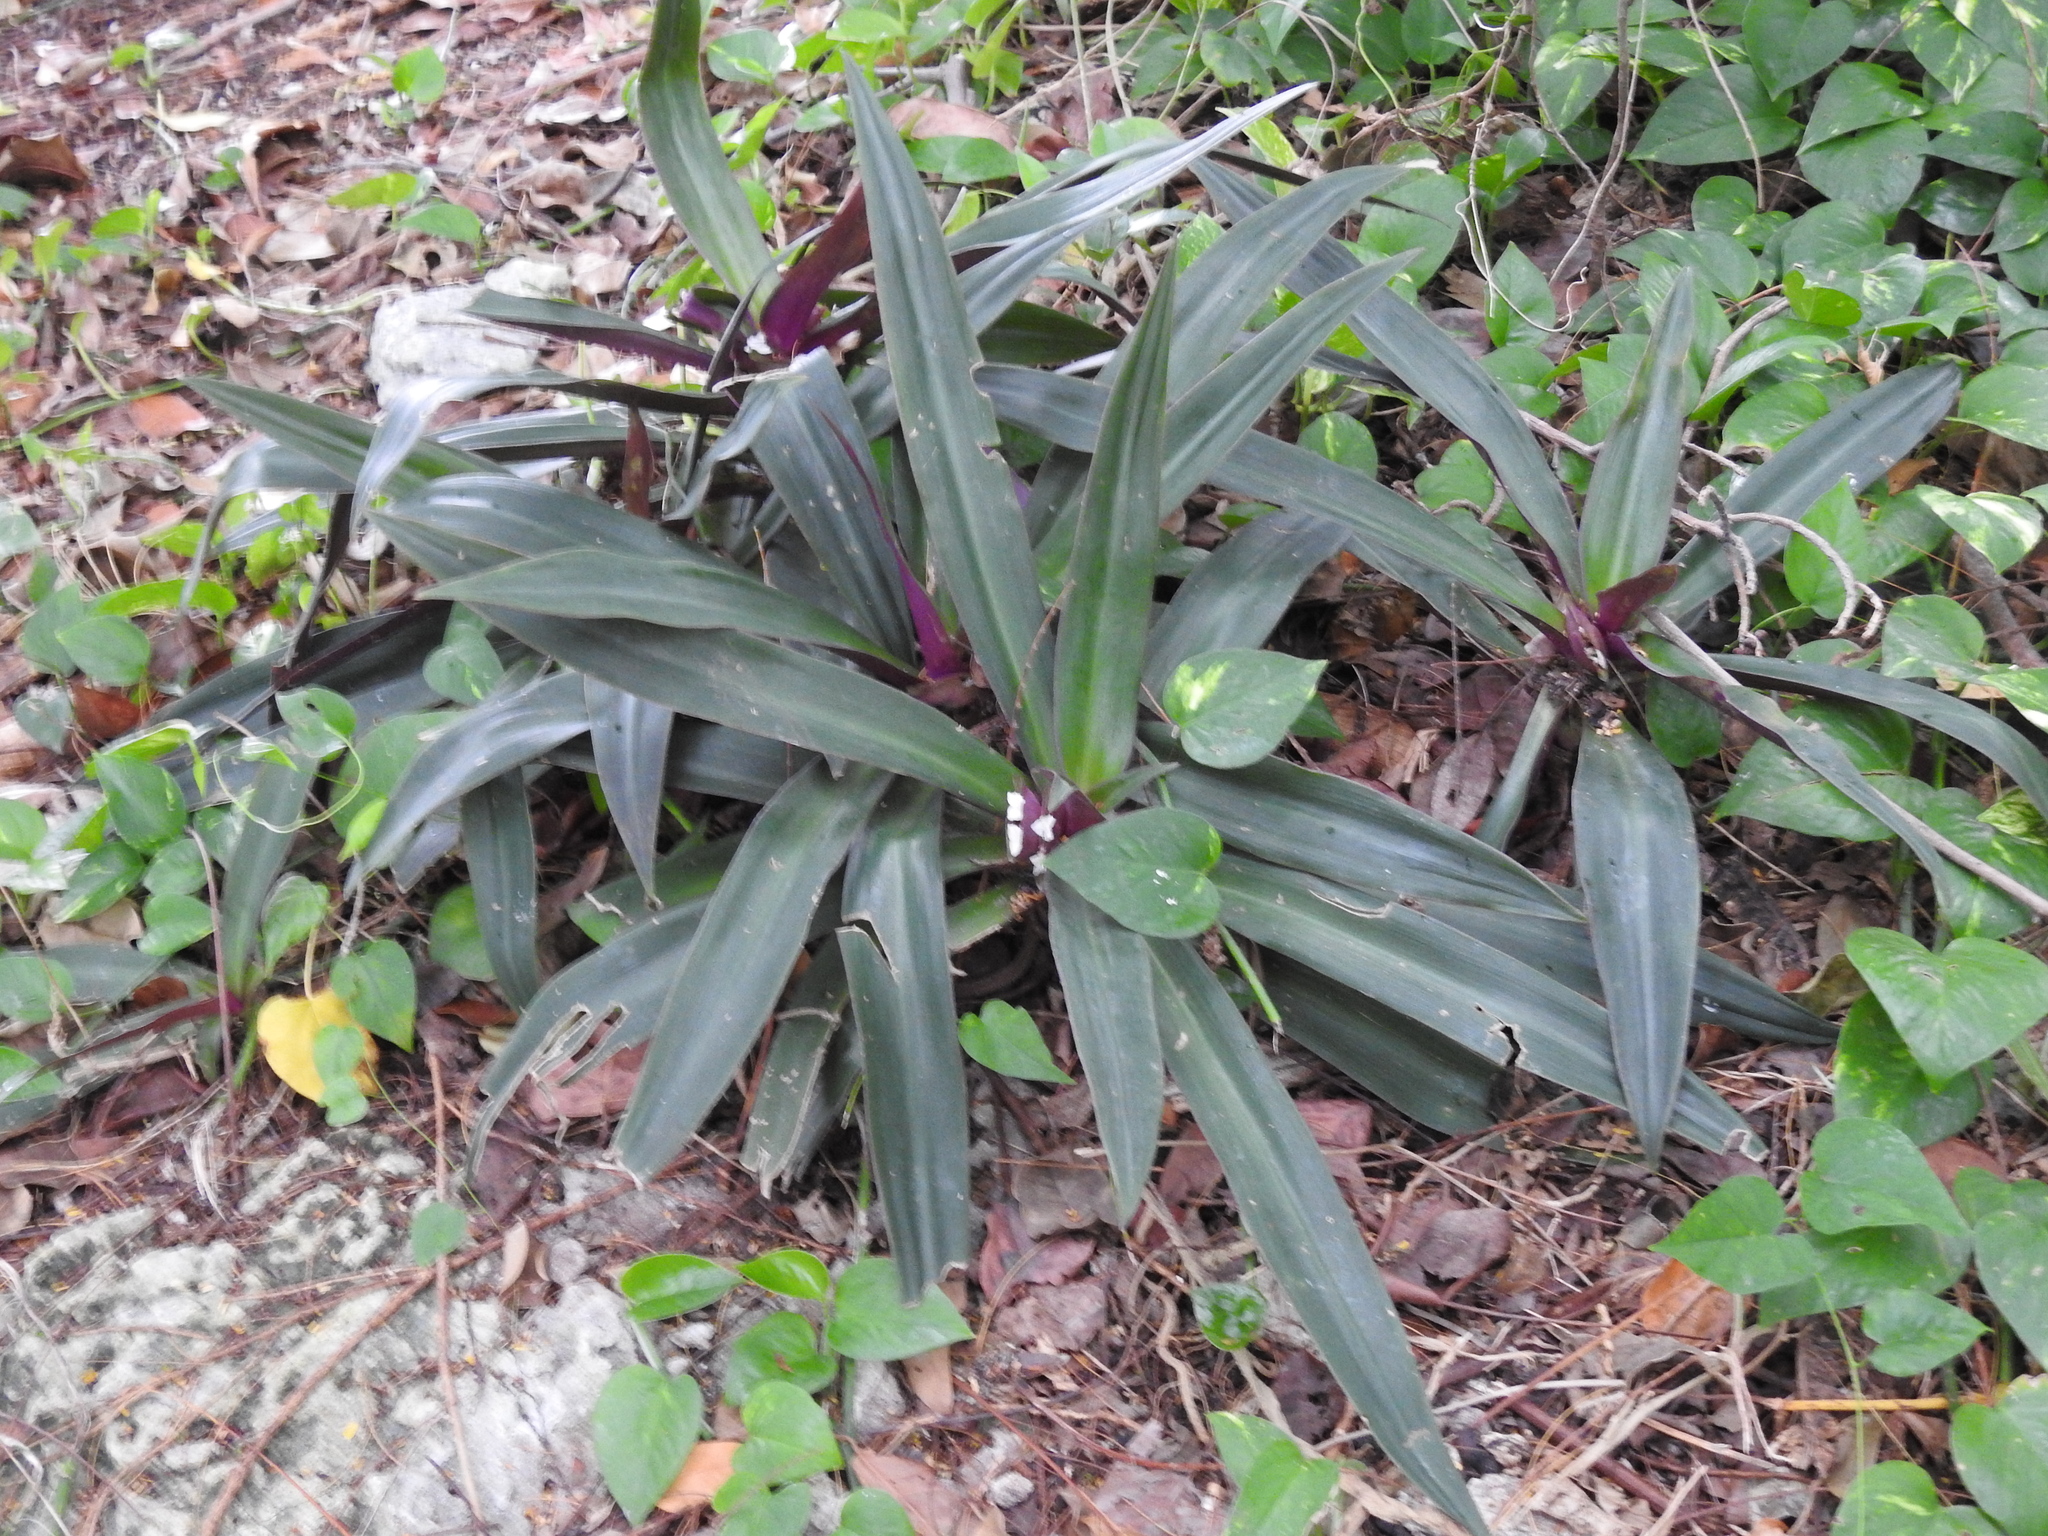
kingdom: Plantae
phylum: Tracheophyta
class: Liliopsida
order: Commelinales
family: Commelinaceae
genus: Tradescantia
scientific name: Tradescantia spathacea
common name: Boatlily
